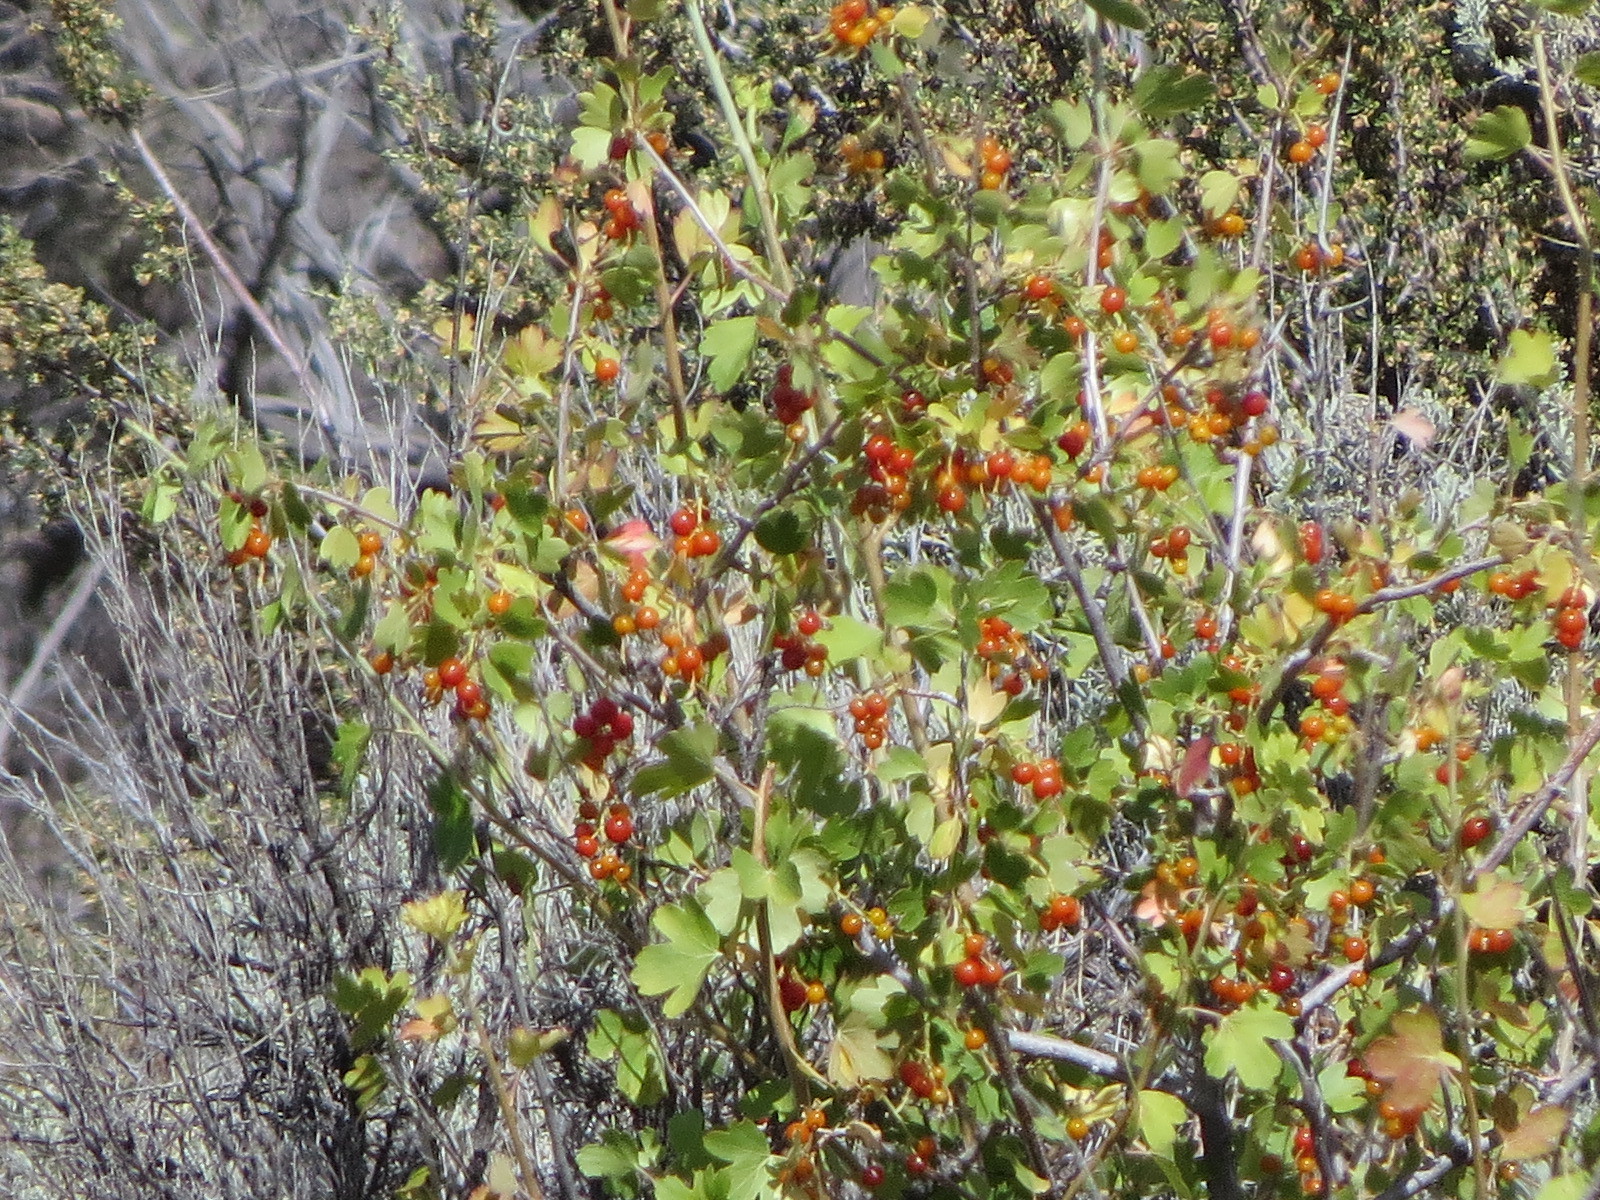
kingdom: Plantae
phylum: Tracheophyta
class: Magnoliopsida
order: Saxifragales
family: Grossulariaceae
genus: Ribes
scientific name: Ribes aureum
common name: Golden currant
